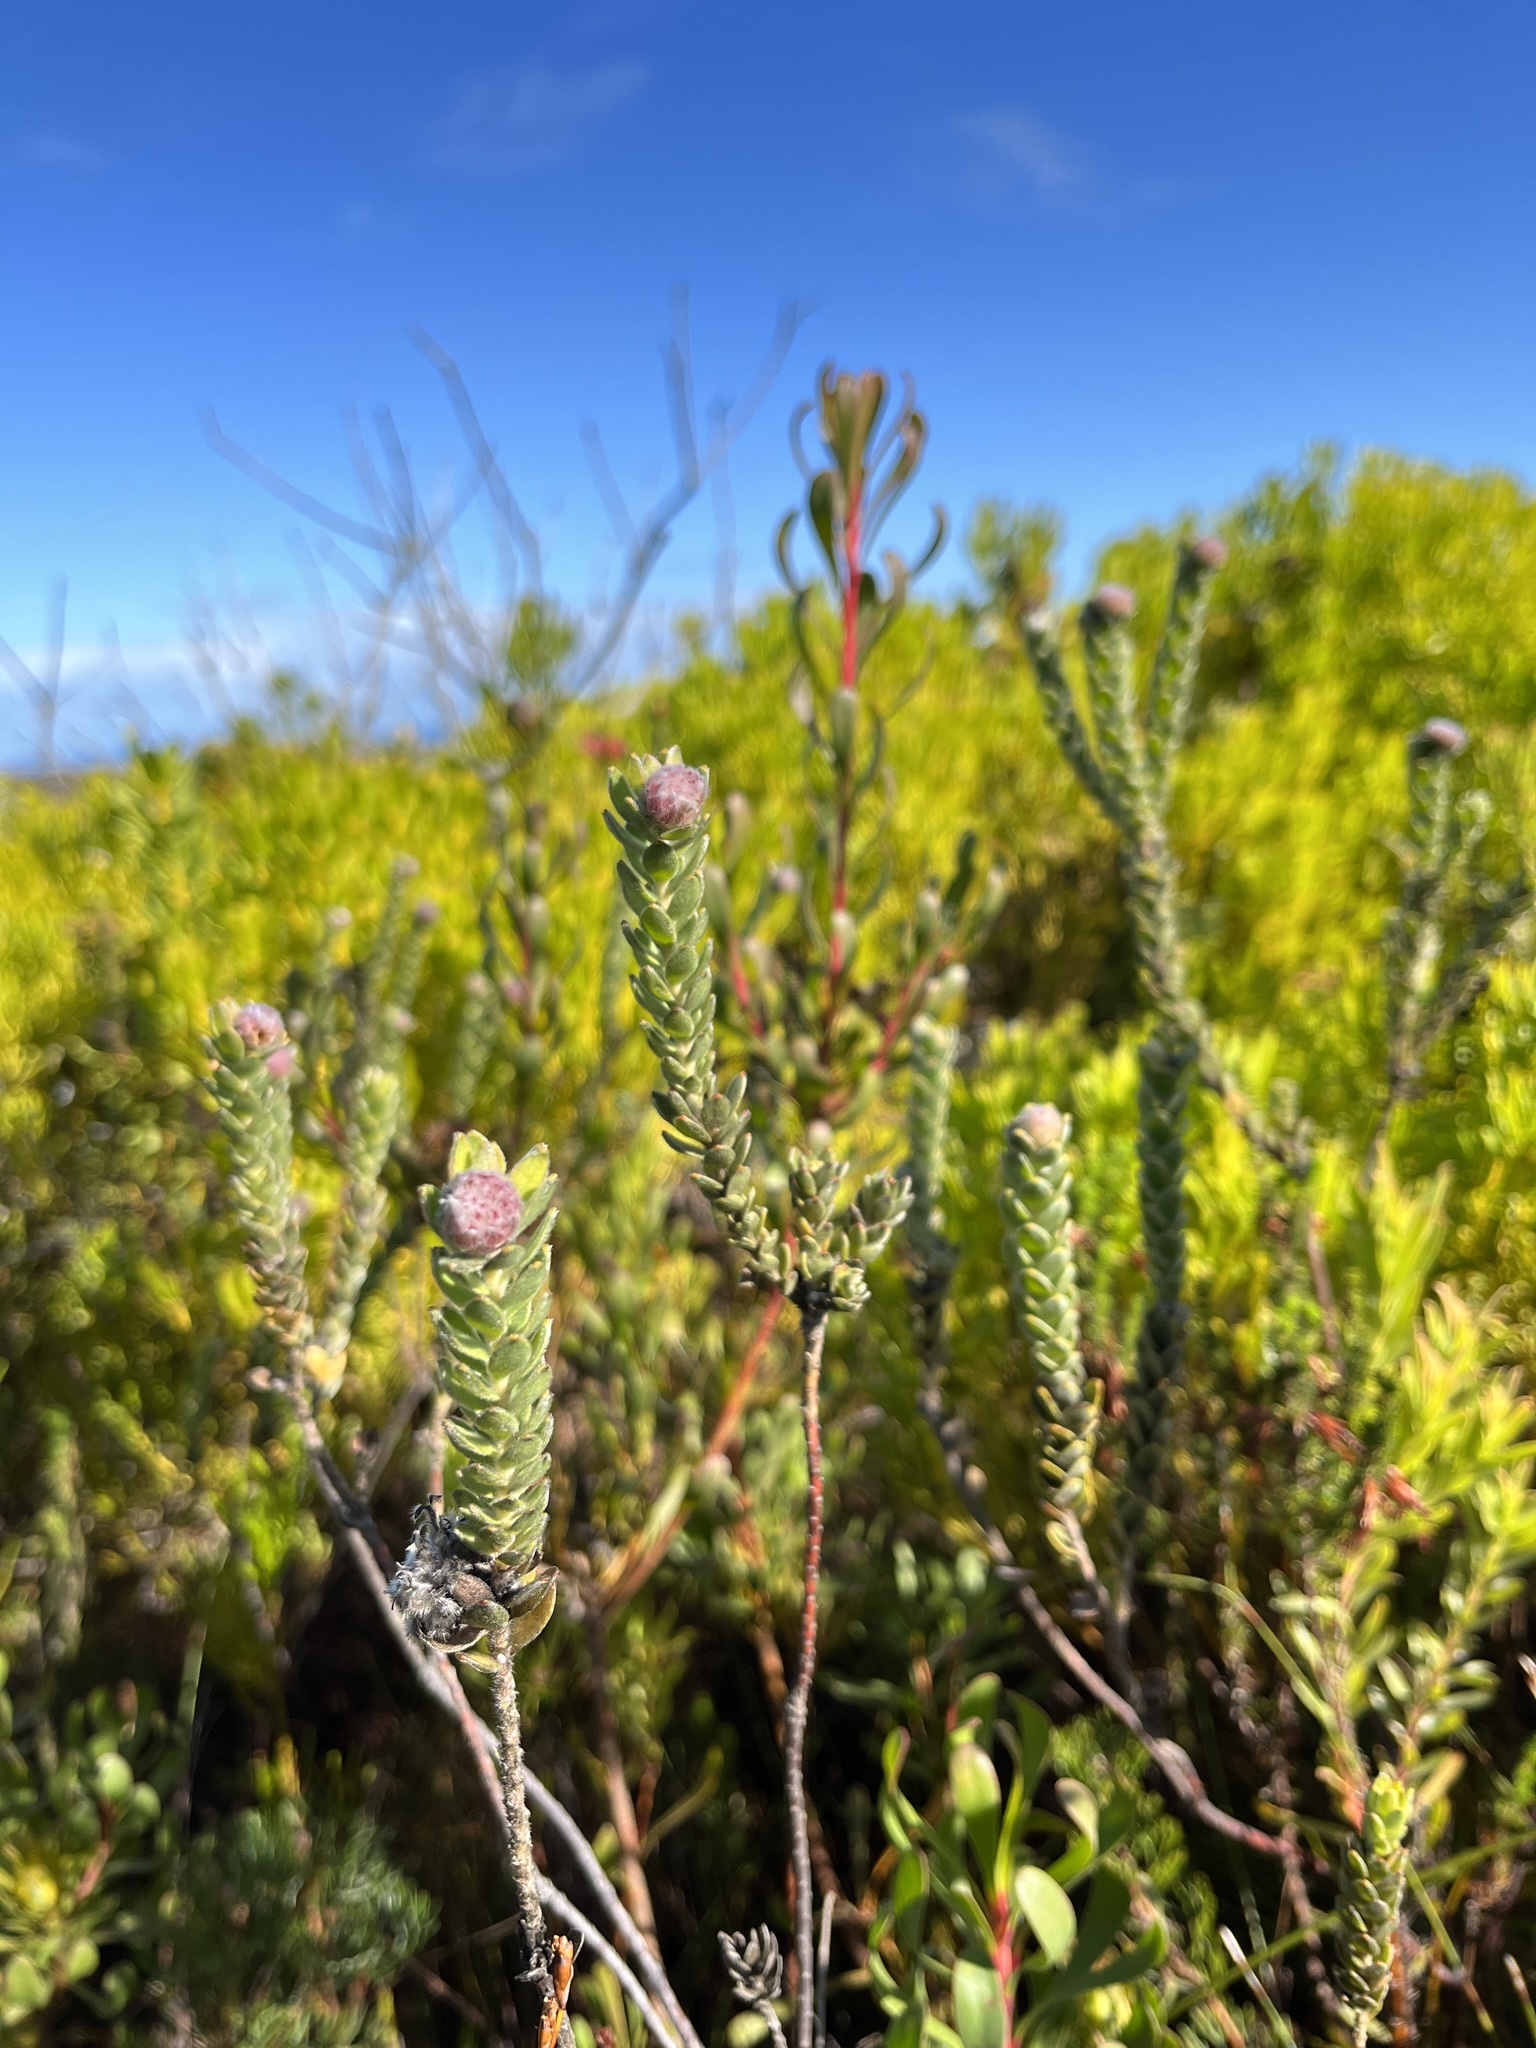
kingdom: Plantae
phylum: Tracheophyta
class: Magnoliopsida
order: Proteales
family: Proteaceae
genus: Leucospermum
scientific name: Leucospermum truncatulum
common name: Oval-leaf pincushion
